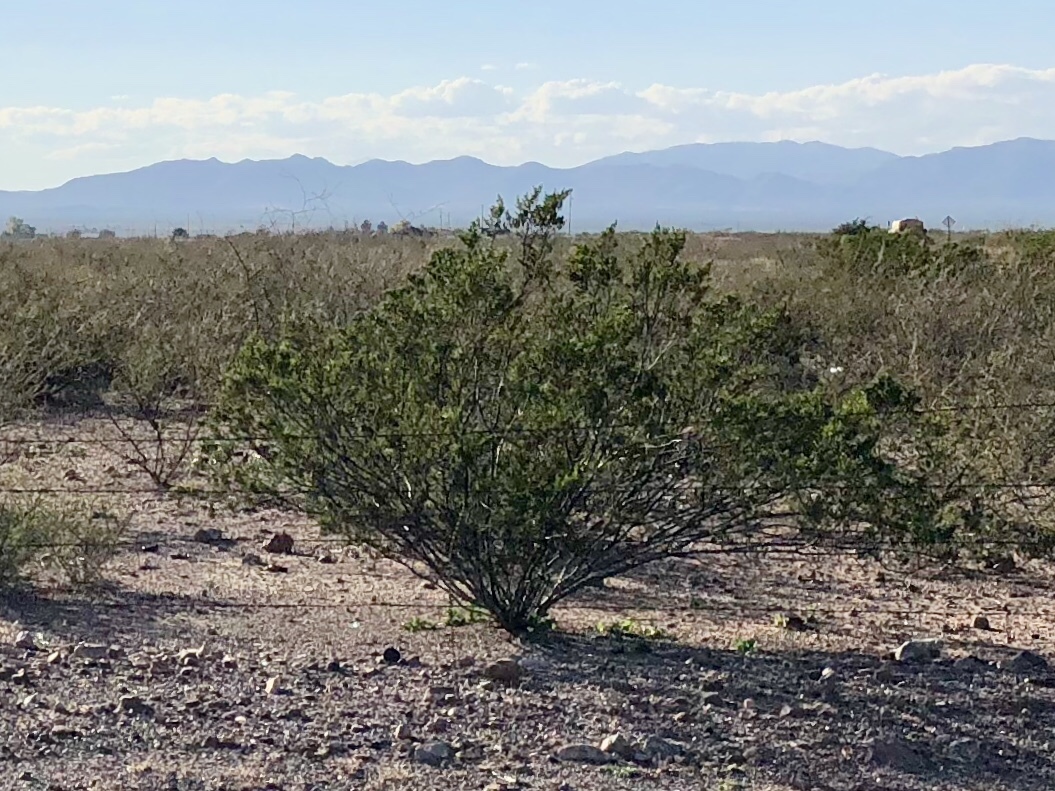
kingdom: Plantae
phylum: Tracheophyta
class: Magnoliopsida
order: Zygophyllales
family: Zygophyllaceae
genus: Larrea
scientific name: Larrea tridentata
